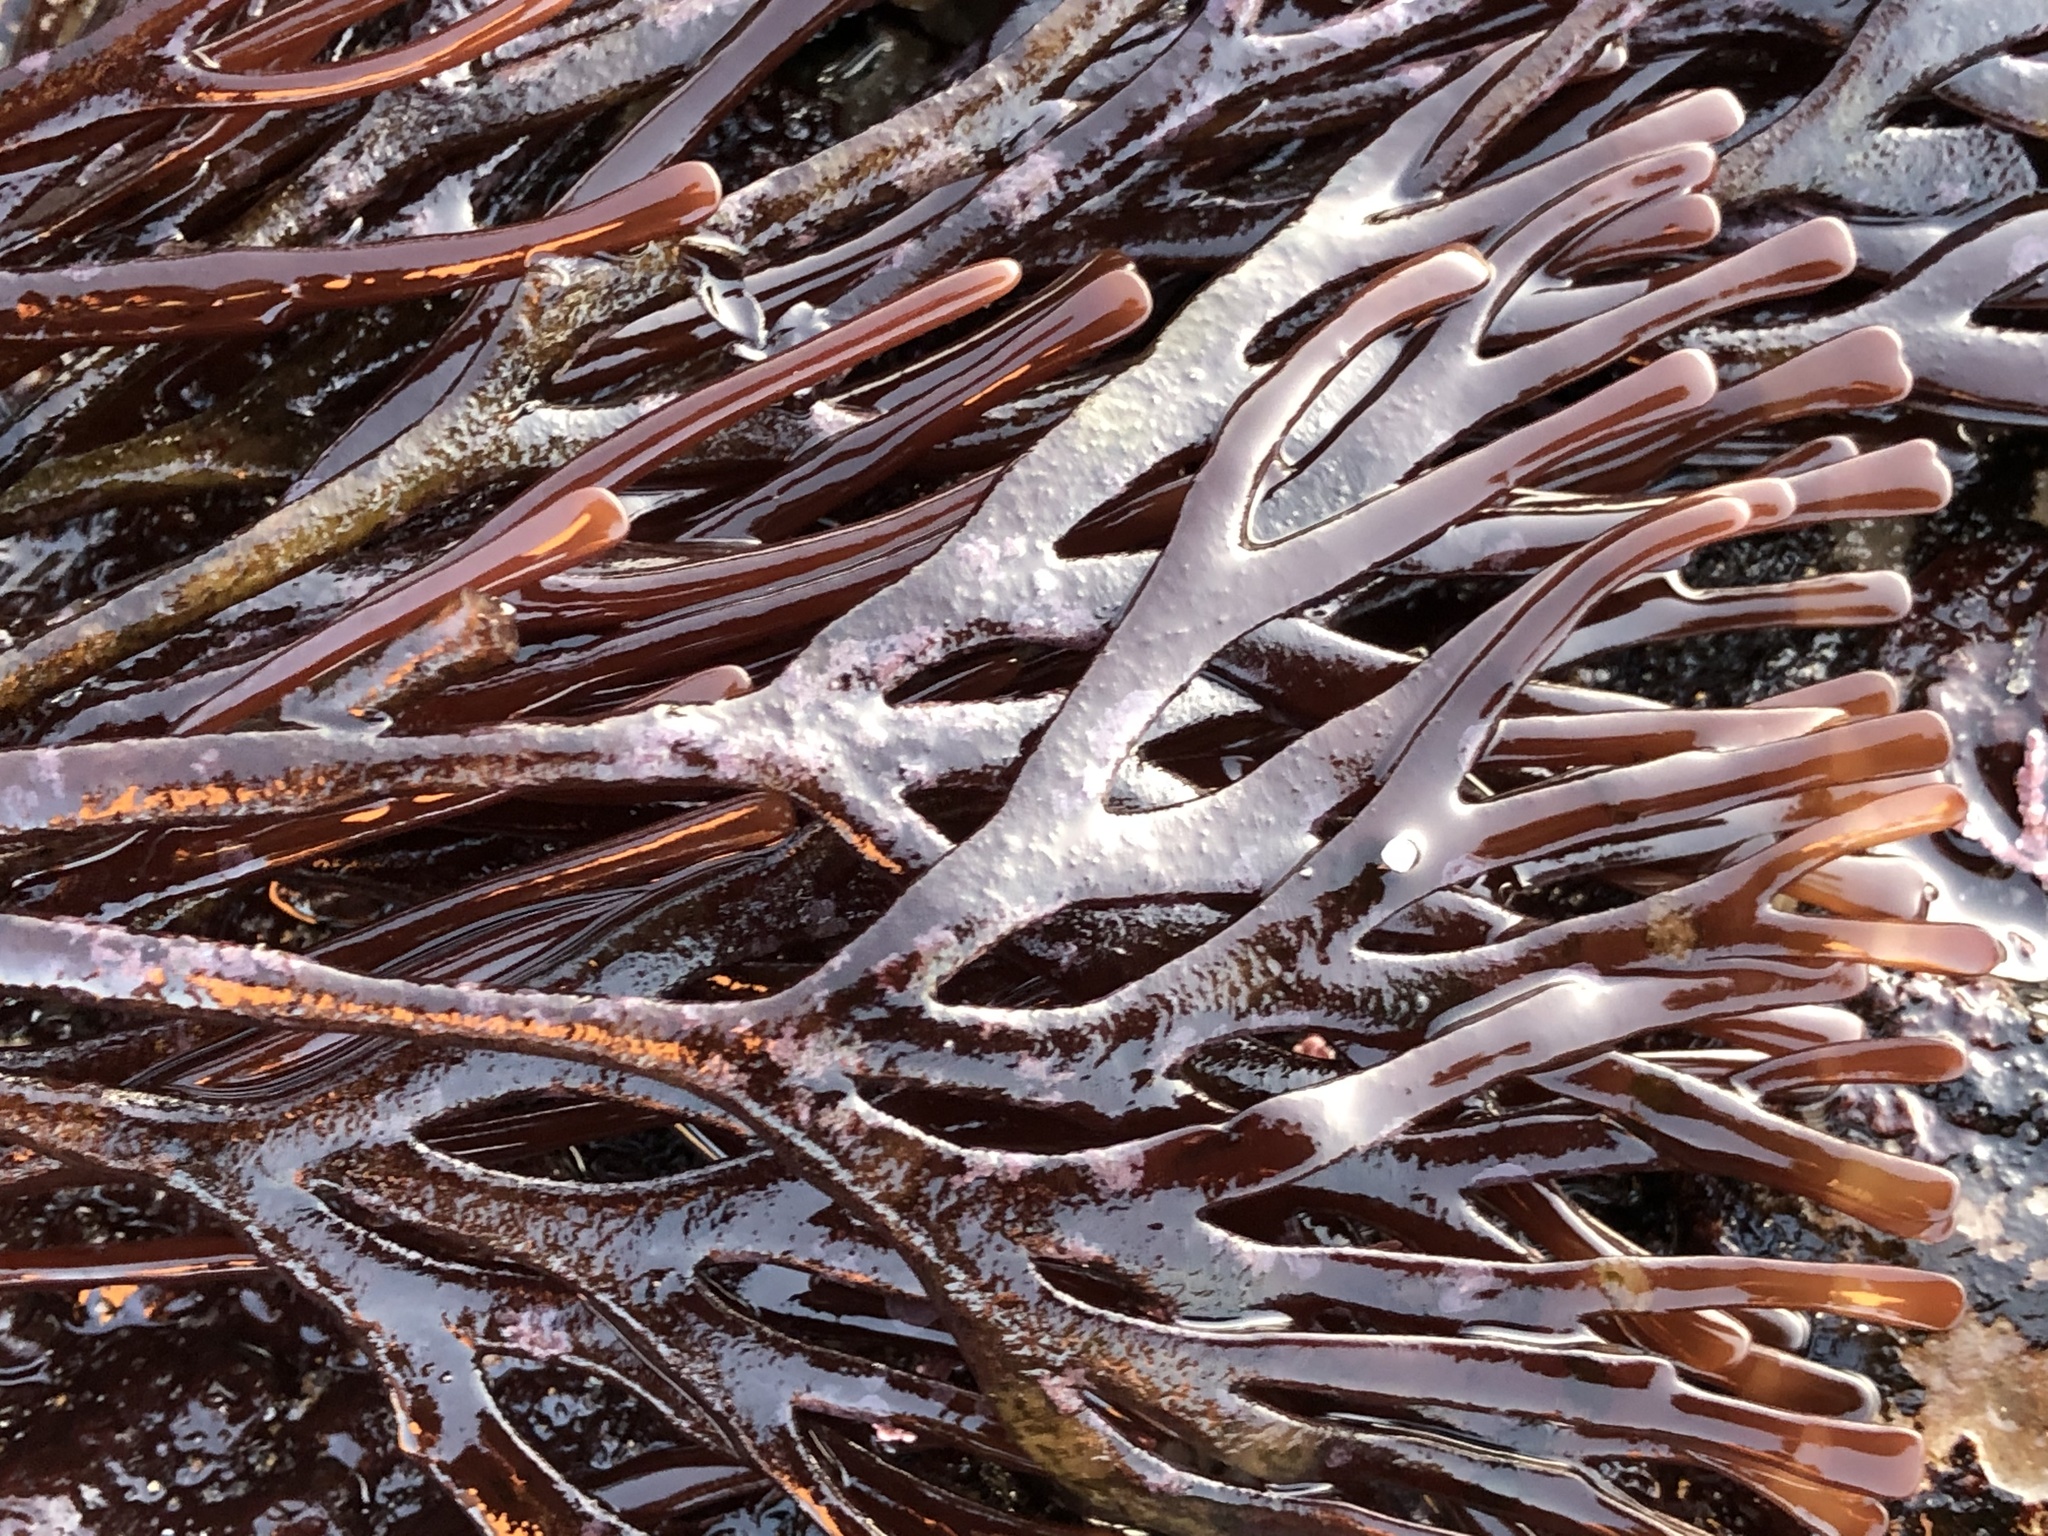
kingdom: Plantae
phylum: Rhodophyta
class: Florideophyceae
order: Gigartinales
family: Phyllophoraceae
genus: Ahnfeltiopsis
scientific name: Ahnfeltiopsis linearis
